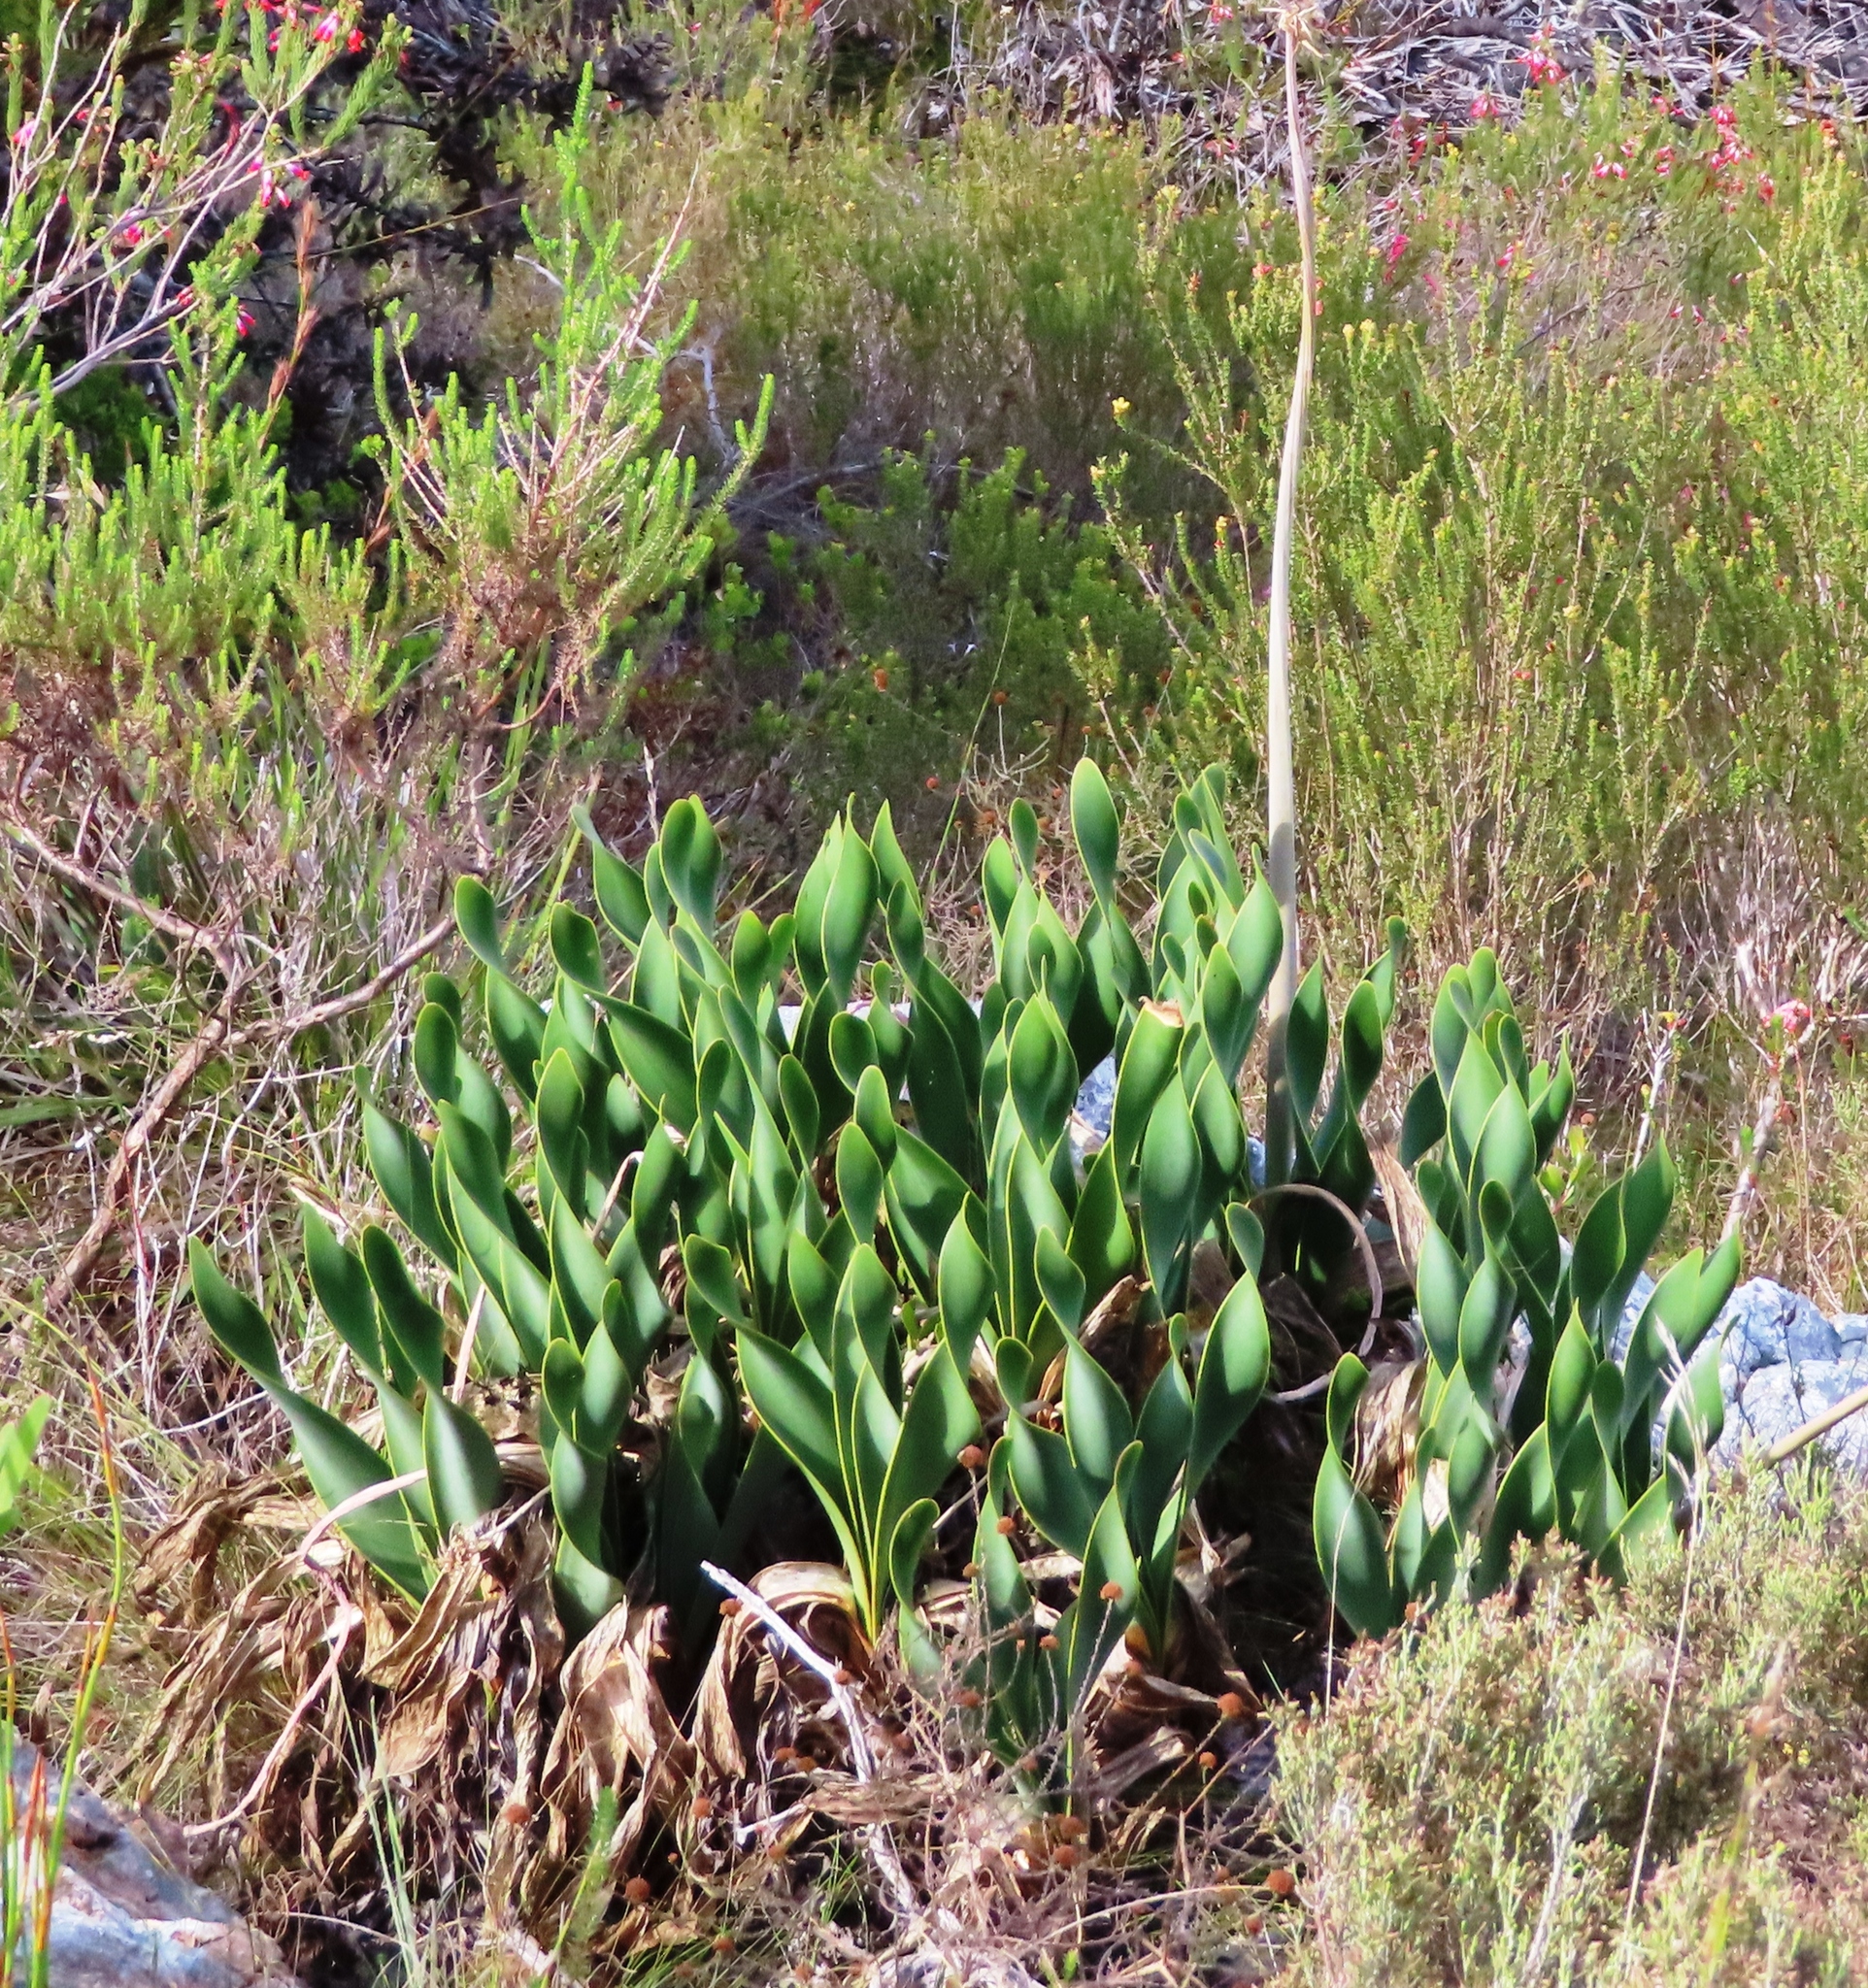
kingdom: Plantae
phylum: Tracheophyta
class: Liliopsida
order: Asparagales
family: Amaryllidaceae
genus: Cyrtanthus
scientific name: Cyrtanthus carneus
